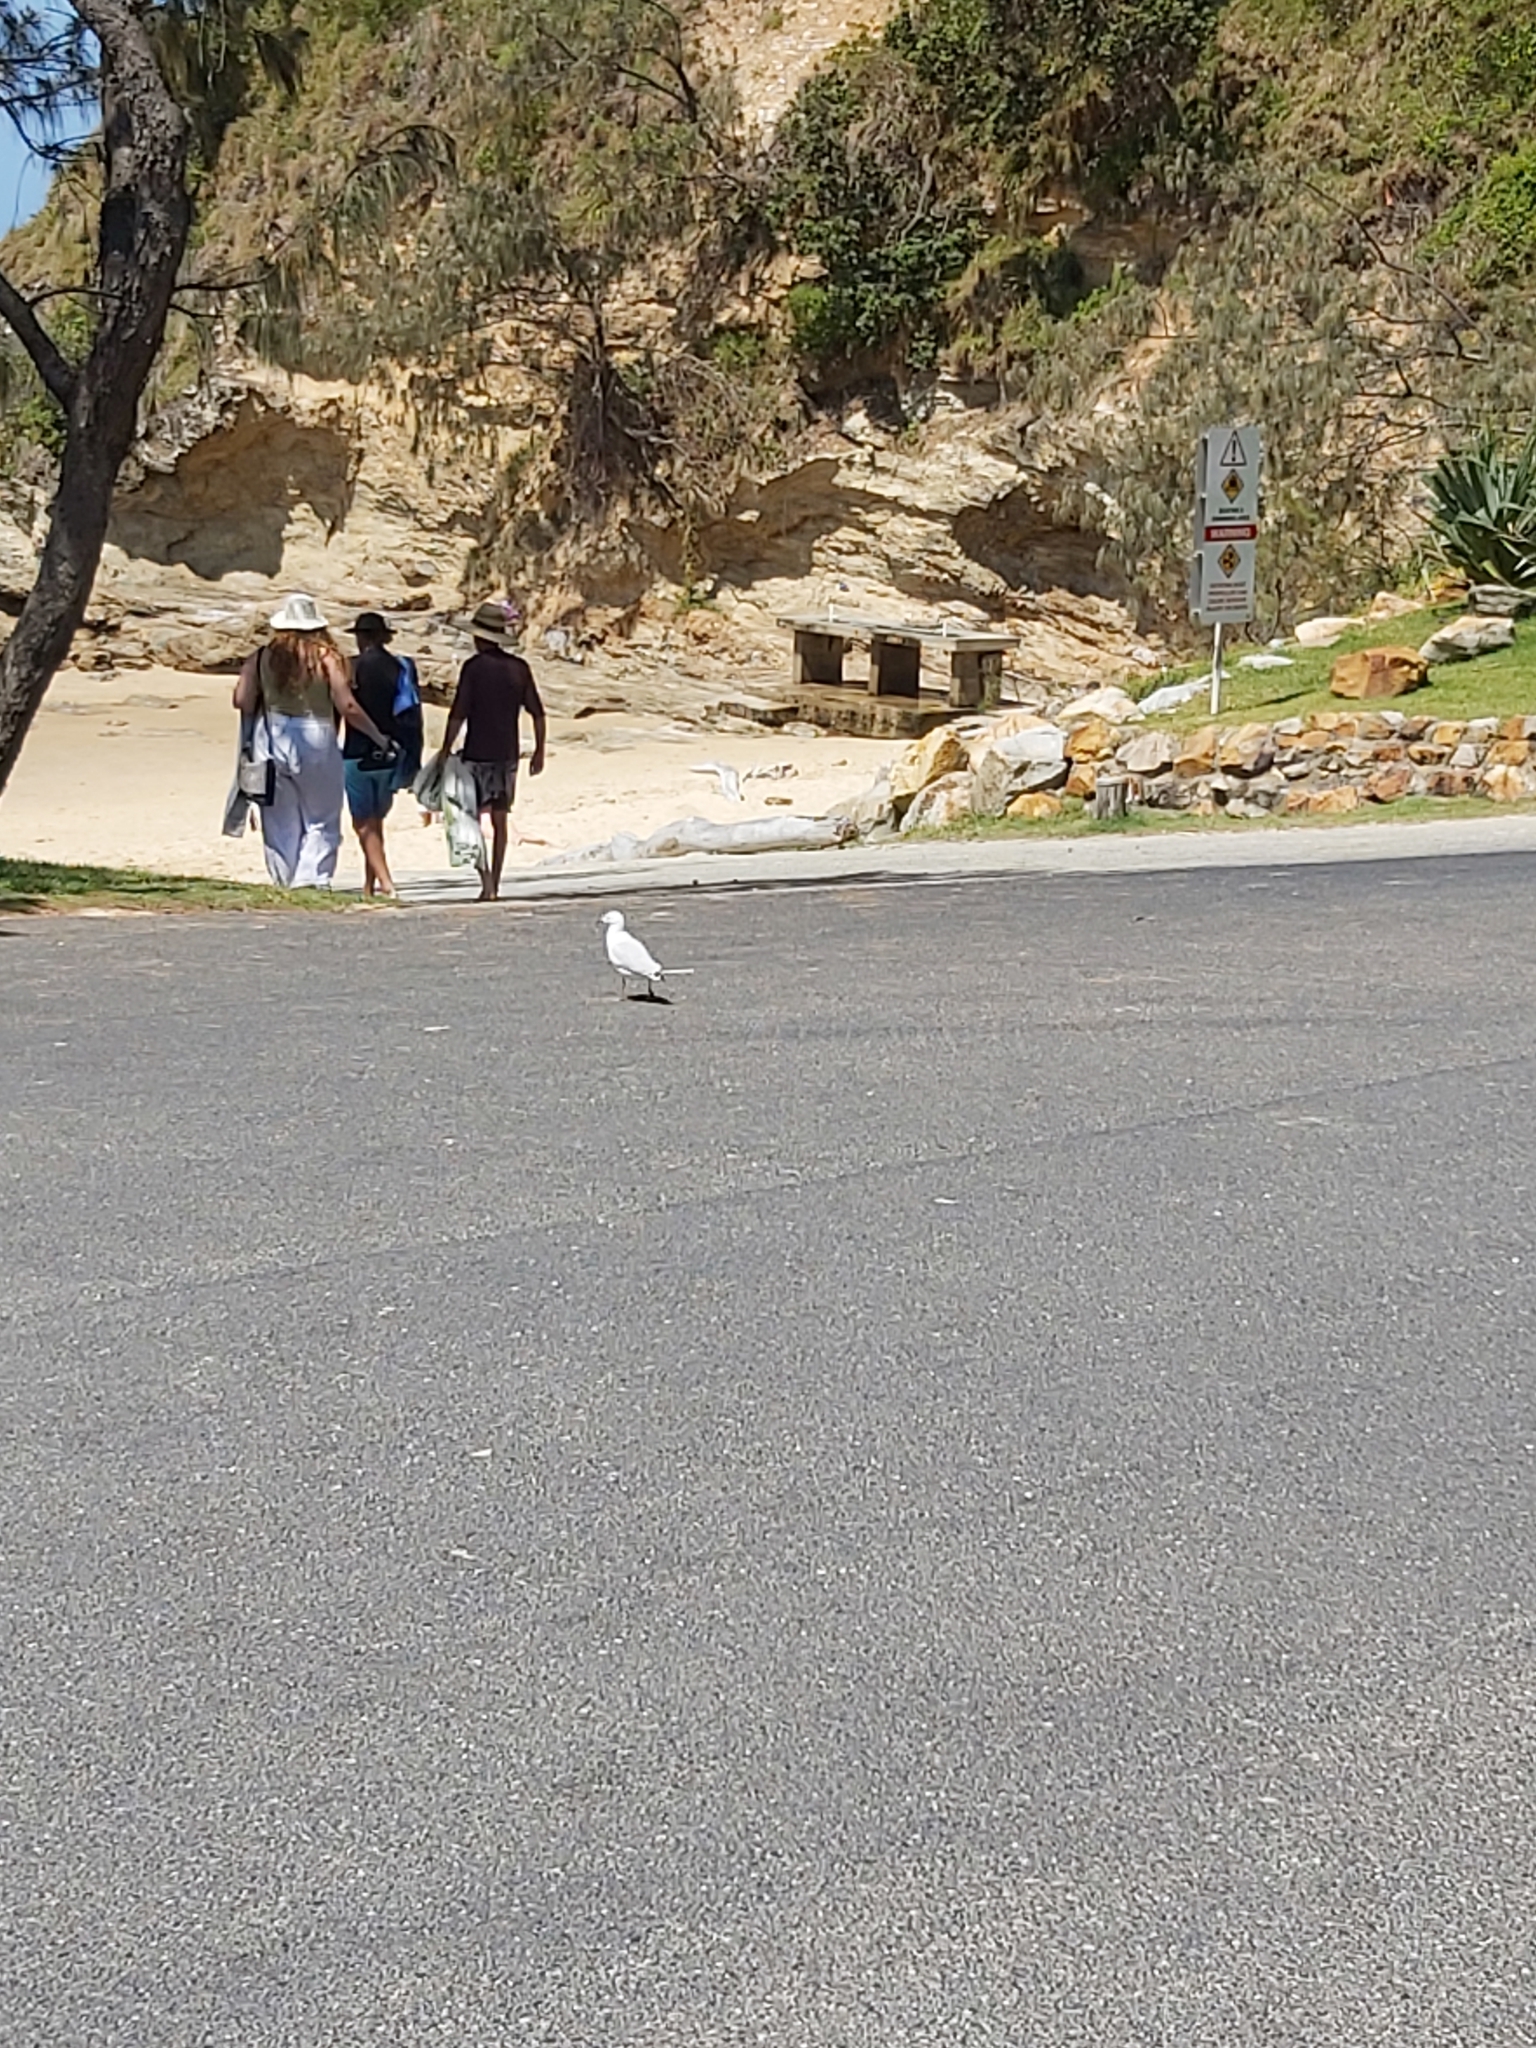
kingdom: Animalia
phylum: Chordata
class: Aves
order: Charadriiformes
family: Laridae
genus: Chroicocephalus
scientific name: Chroicocephalus novaehollandiae
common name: Silver gull
